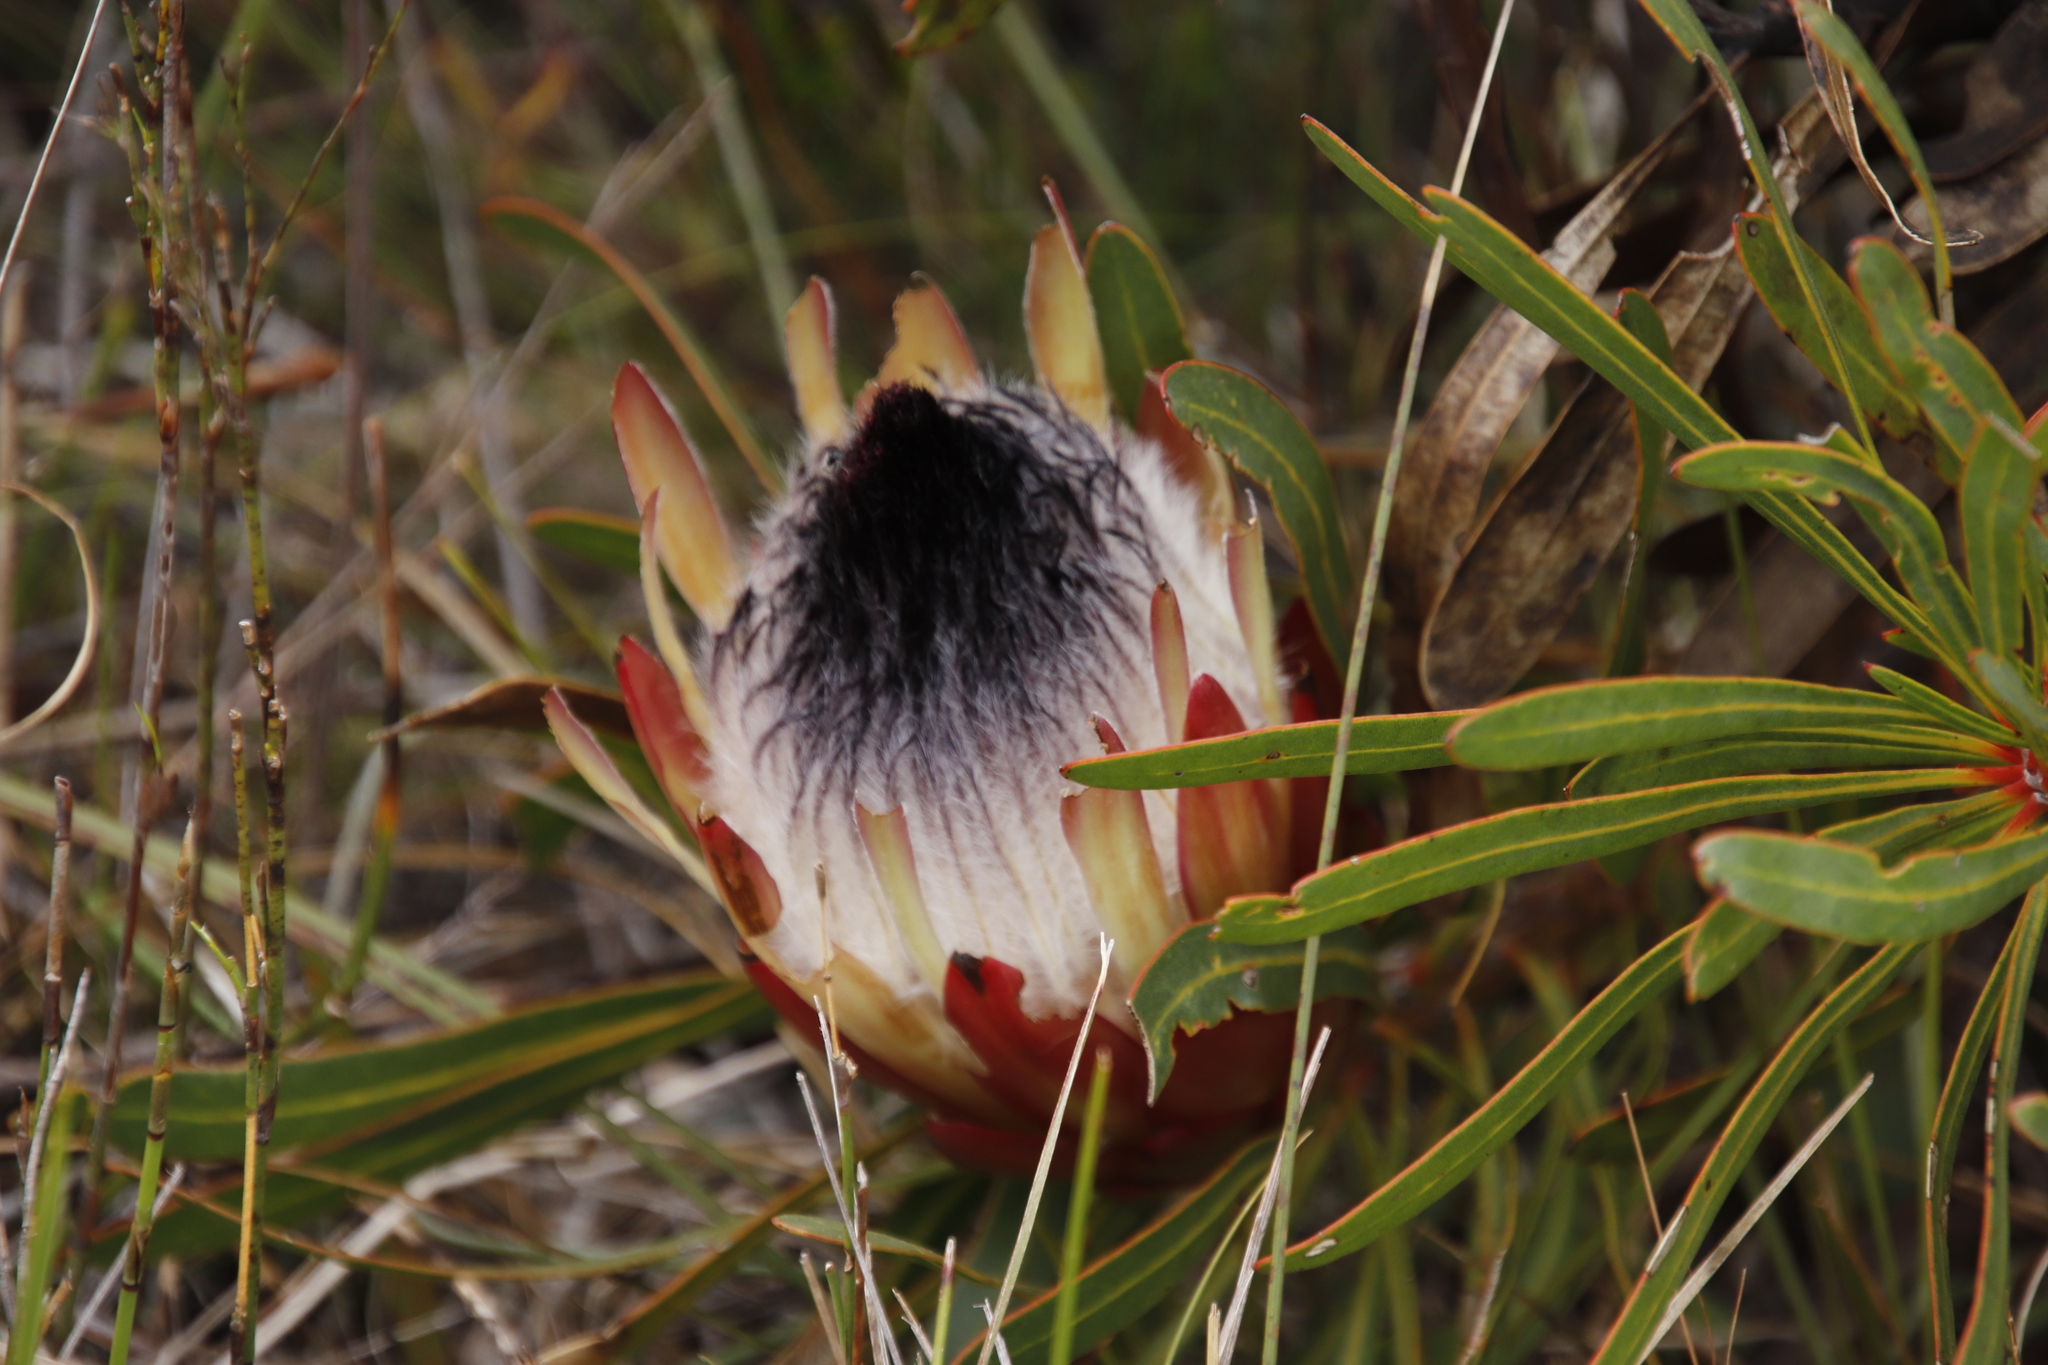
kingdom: Plantae
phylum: Tracheophyta
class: Magnoliopsida
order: Proteales
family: Proteaceae
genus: Protea
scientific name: Protea longifolia
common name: Long-leaf sugarbush
